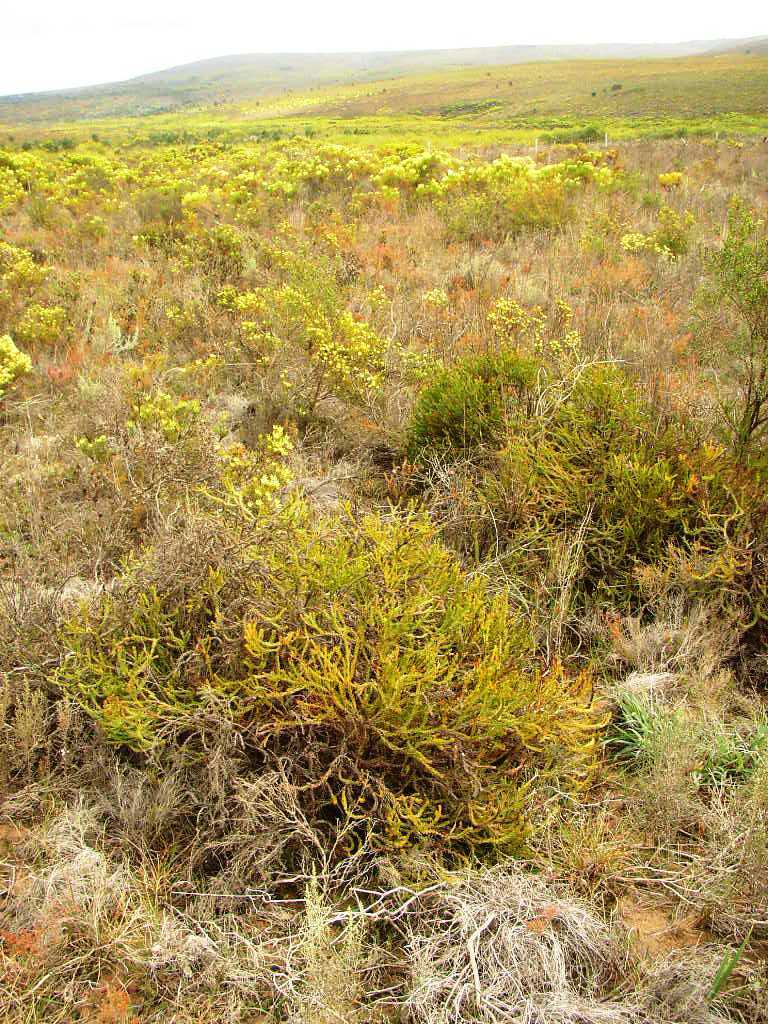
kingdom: Plantae
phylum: Tracheophyta
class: Magnoliopsida
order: Proteales
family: Proteaceae
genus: Protea
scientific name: Protea subulifolia
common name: Awl-leaf sugarbush
